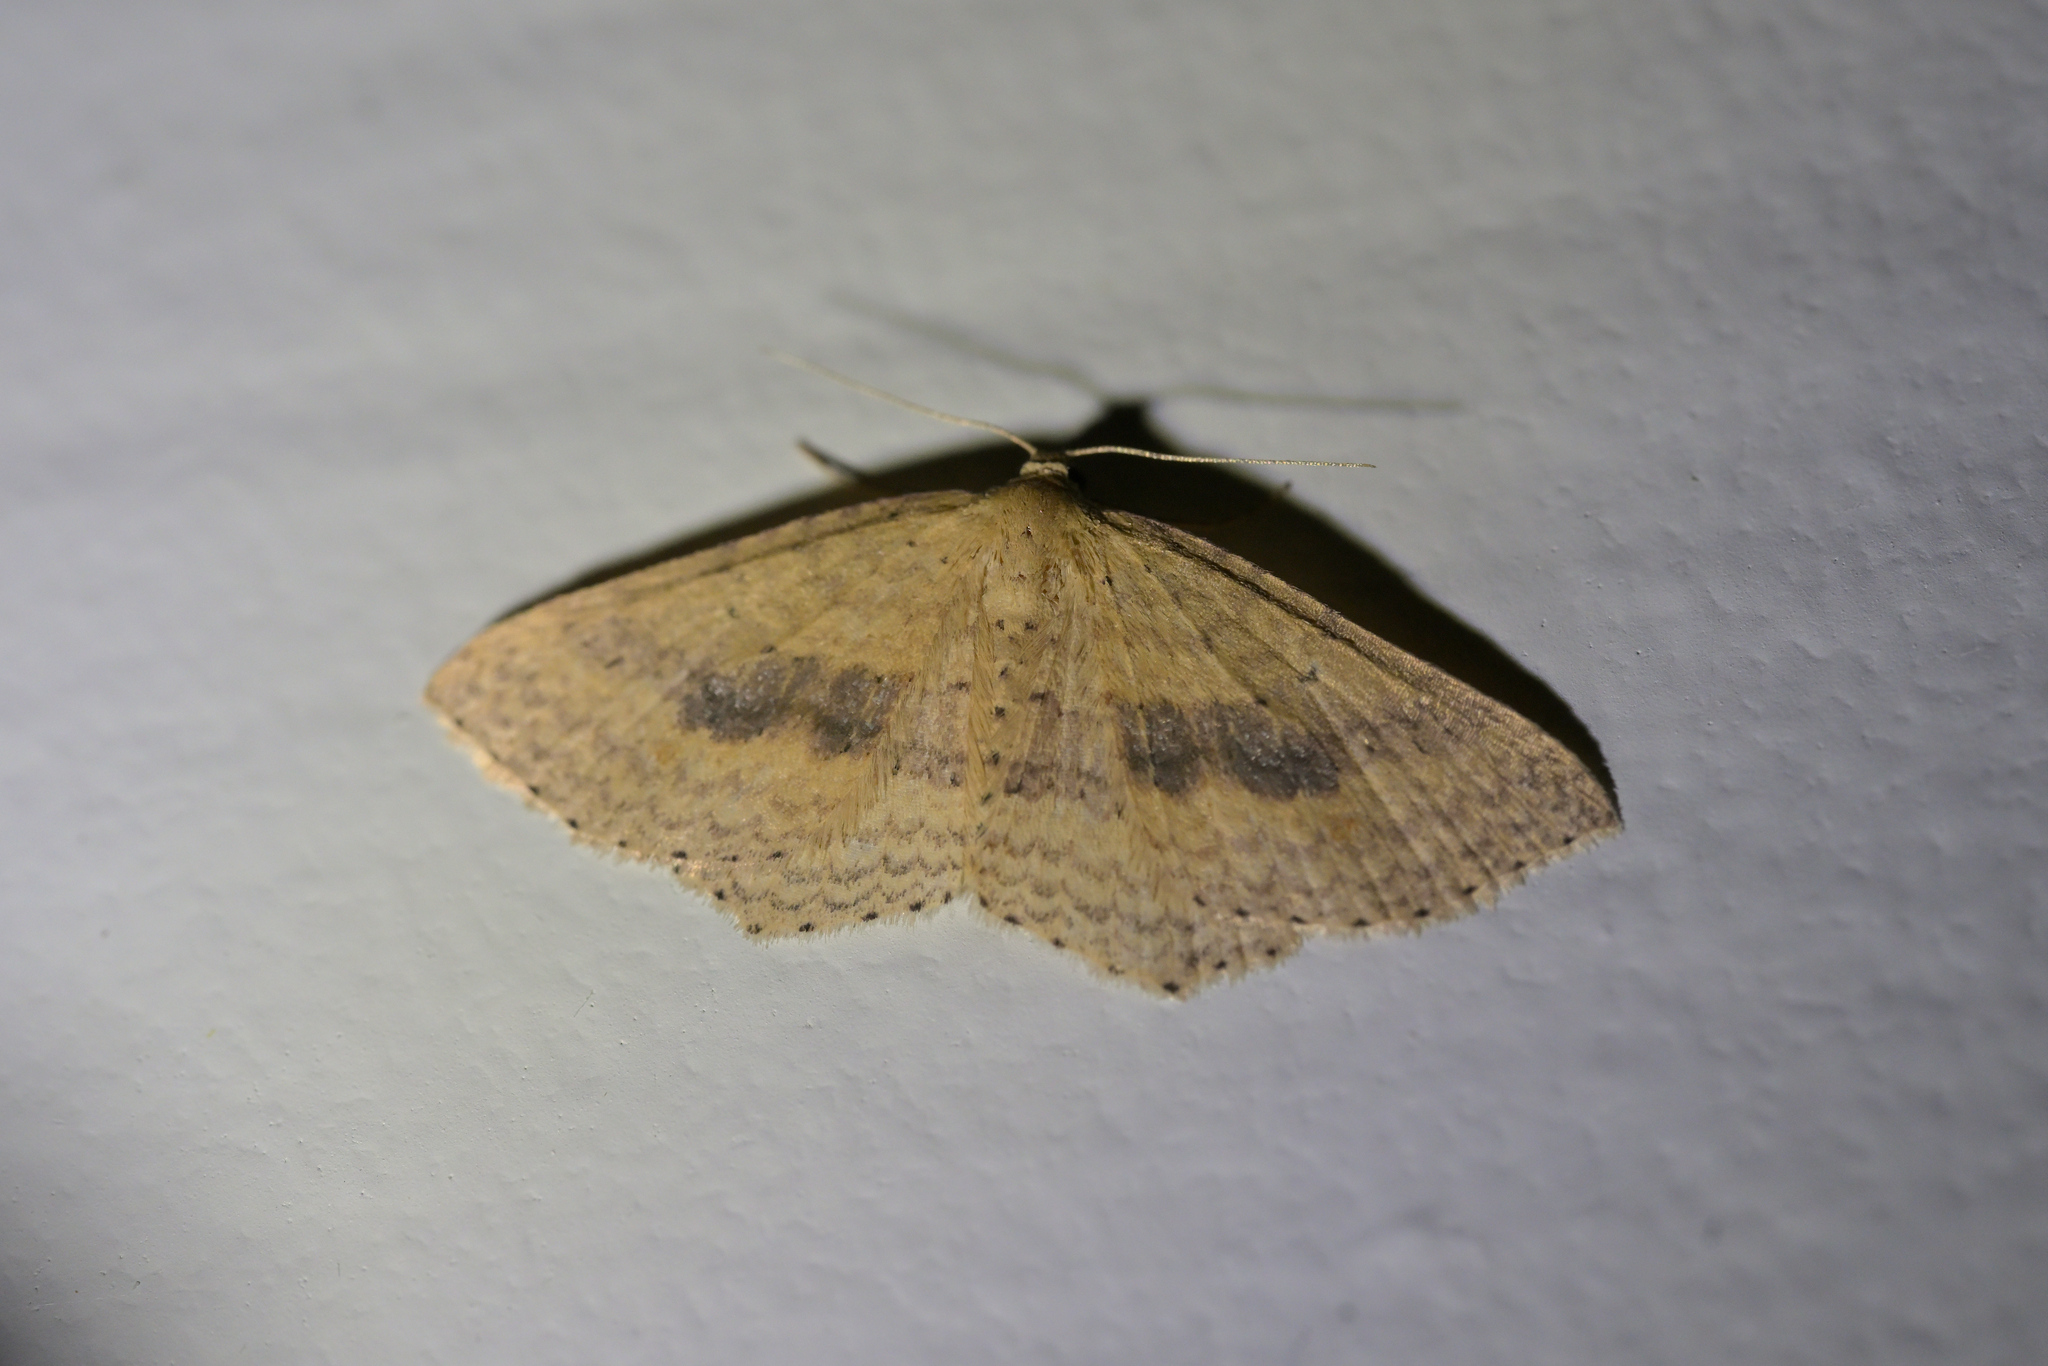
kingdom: Animalia
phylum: Arthropoda
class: Insecta
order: Lepidoptera
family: Geometridae
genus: Epicyme
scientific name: Epicyme rubropunctaria
